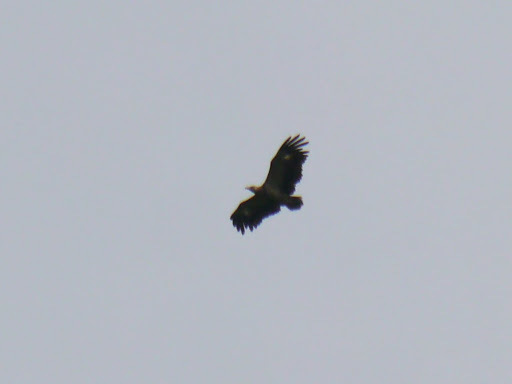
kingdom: Animalia
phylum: Chordata
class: Aves
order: Accipitriformes
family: Accipitridae
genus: Gypohierax
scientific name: Gypohierax angolensis
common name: Palm-nut vulture
